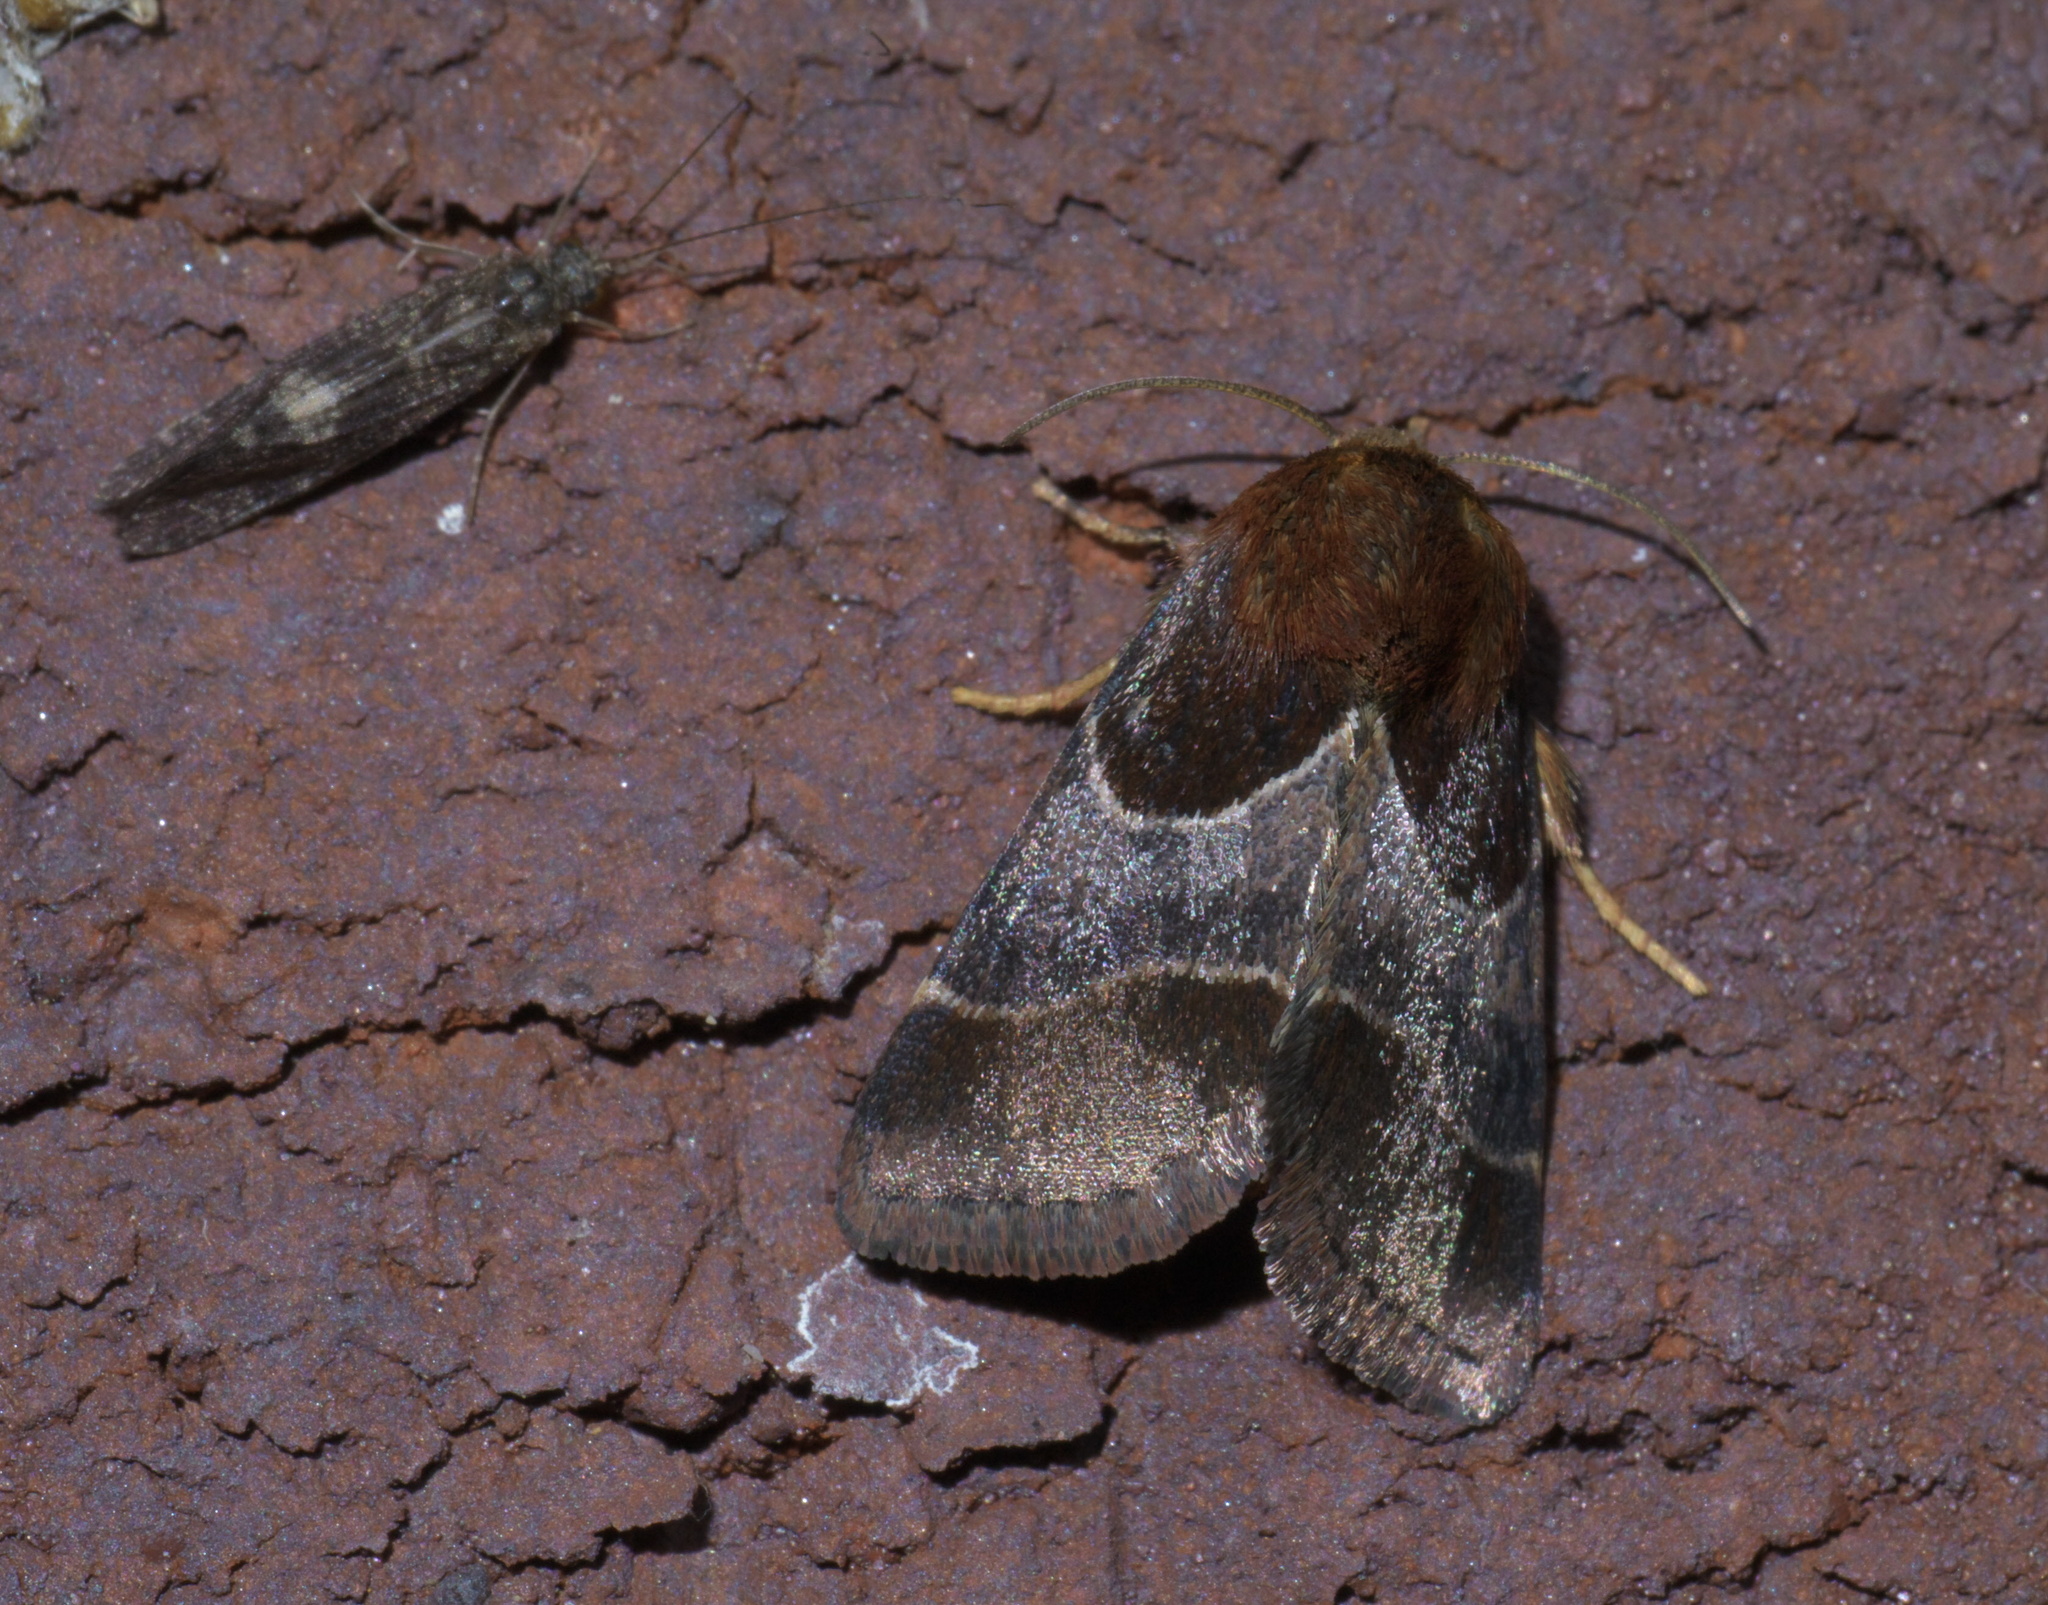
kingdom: Animalia
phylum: Arthropoda
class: Insecta
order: Lepidoptera
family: Noctuidae
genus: Schinia
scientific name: Schinia arcigera
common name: Arcigera flower moth
